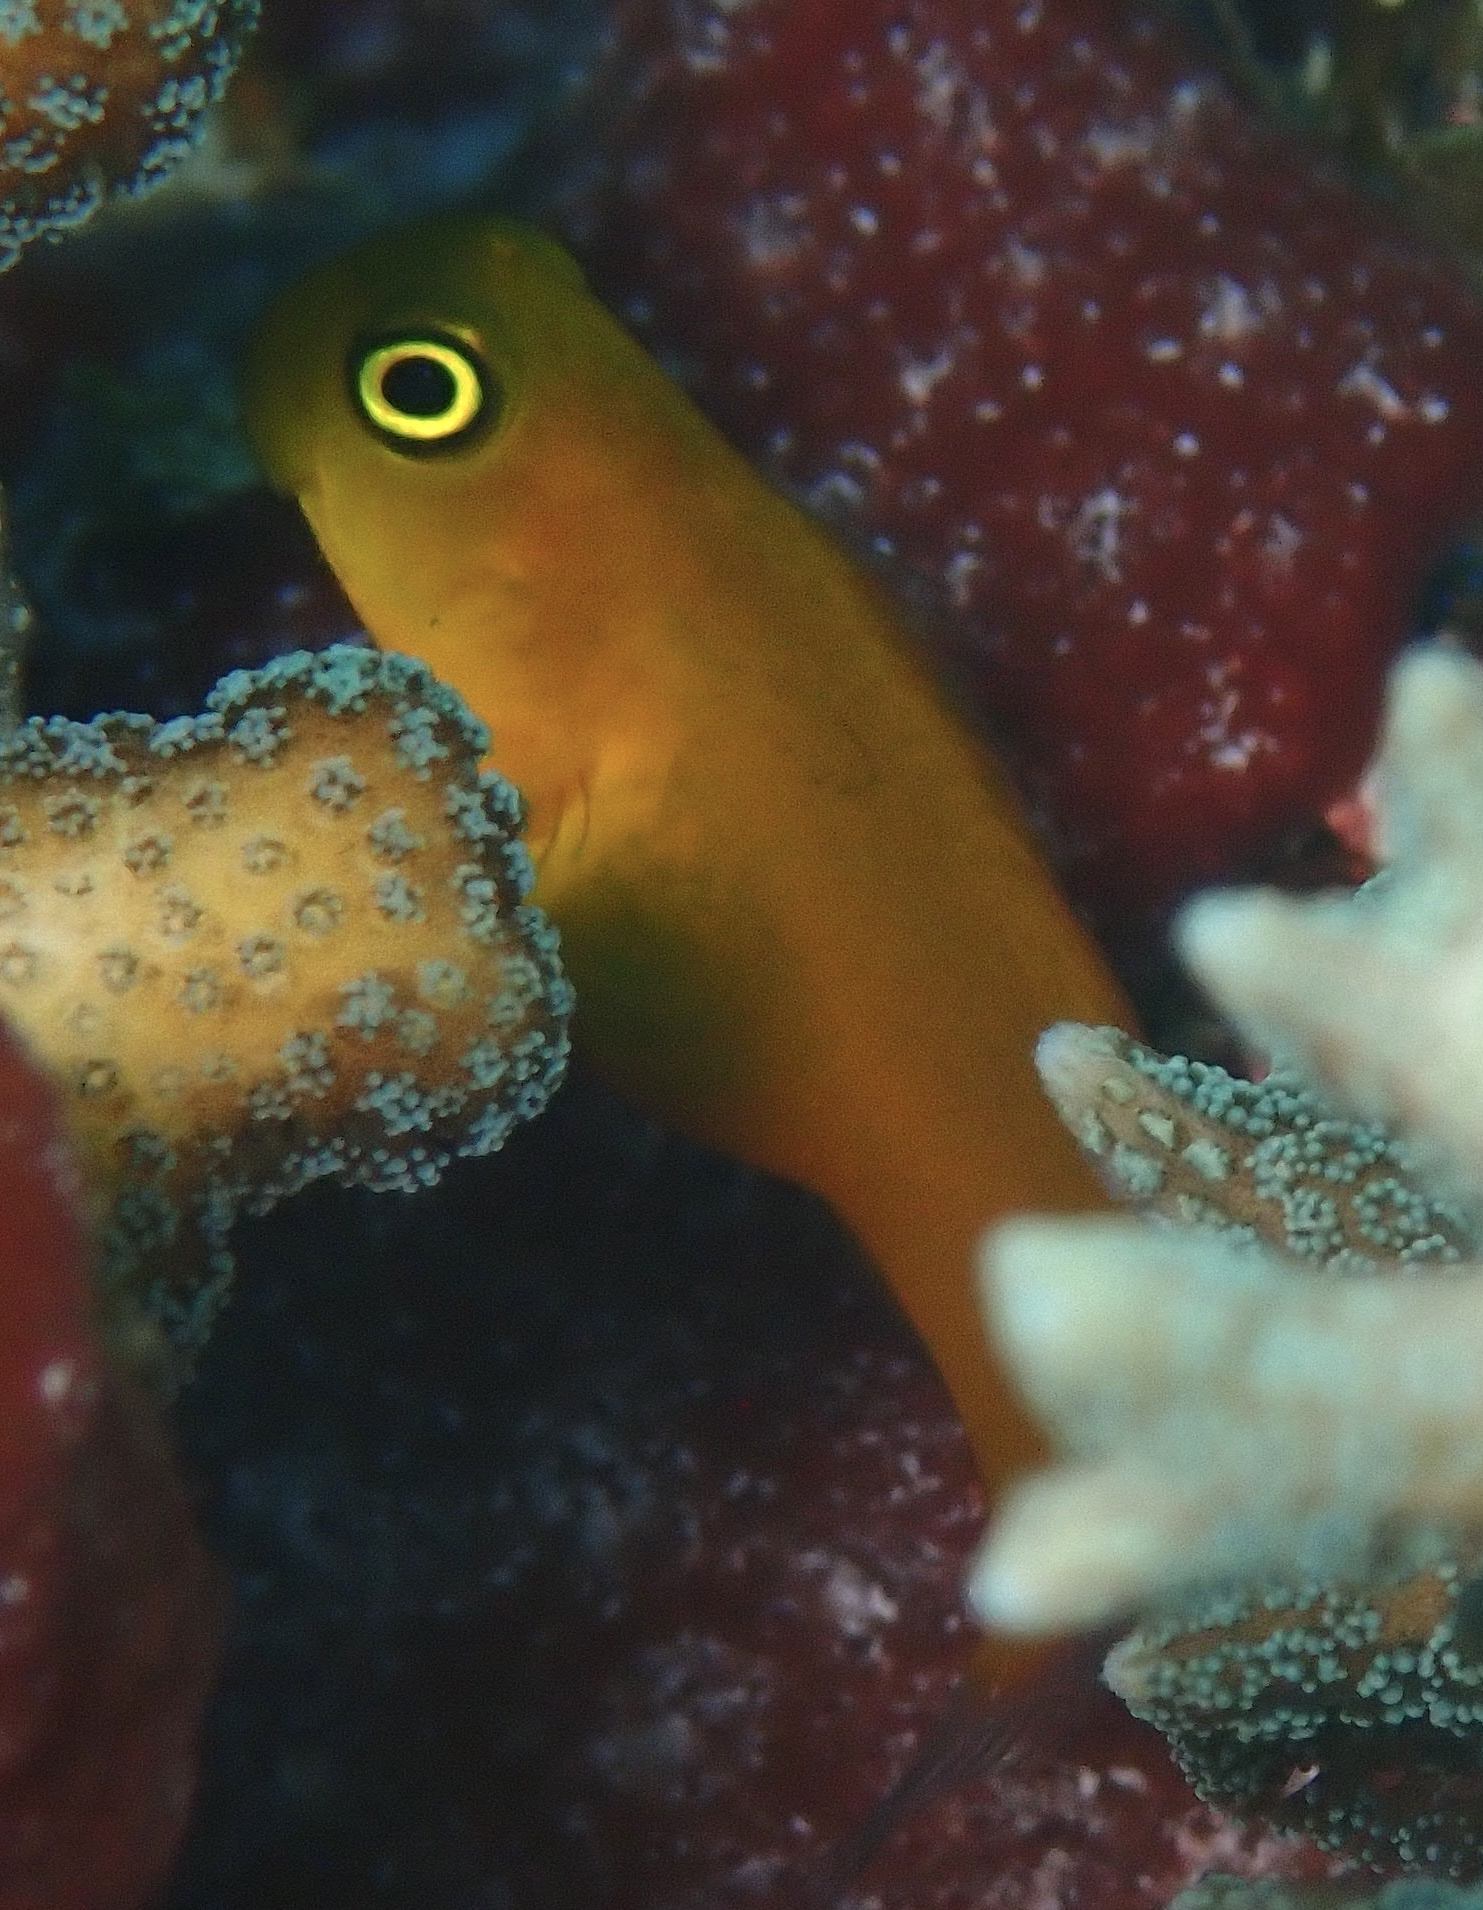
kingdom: Animalia
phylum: Chordata
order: Perciformes
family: Blenniidae
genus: Ecsenius
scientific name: Ecsenius lividanalis
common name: Blue-head combtooth-blenny
